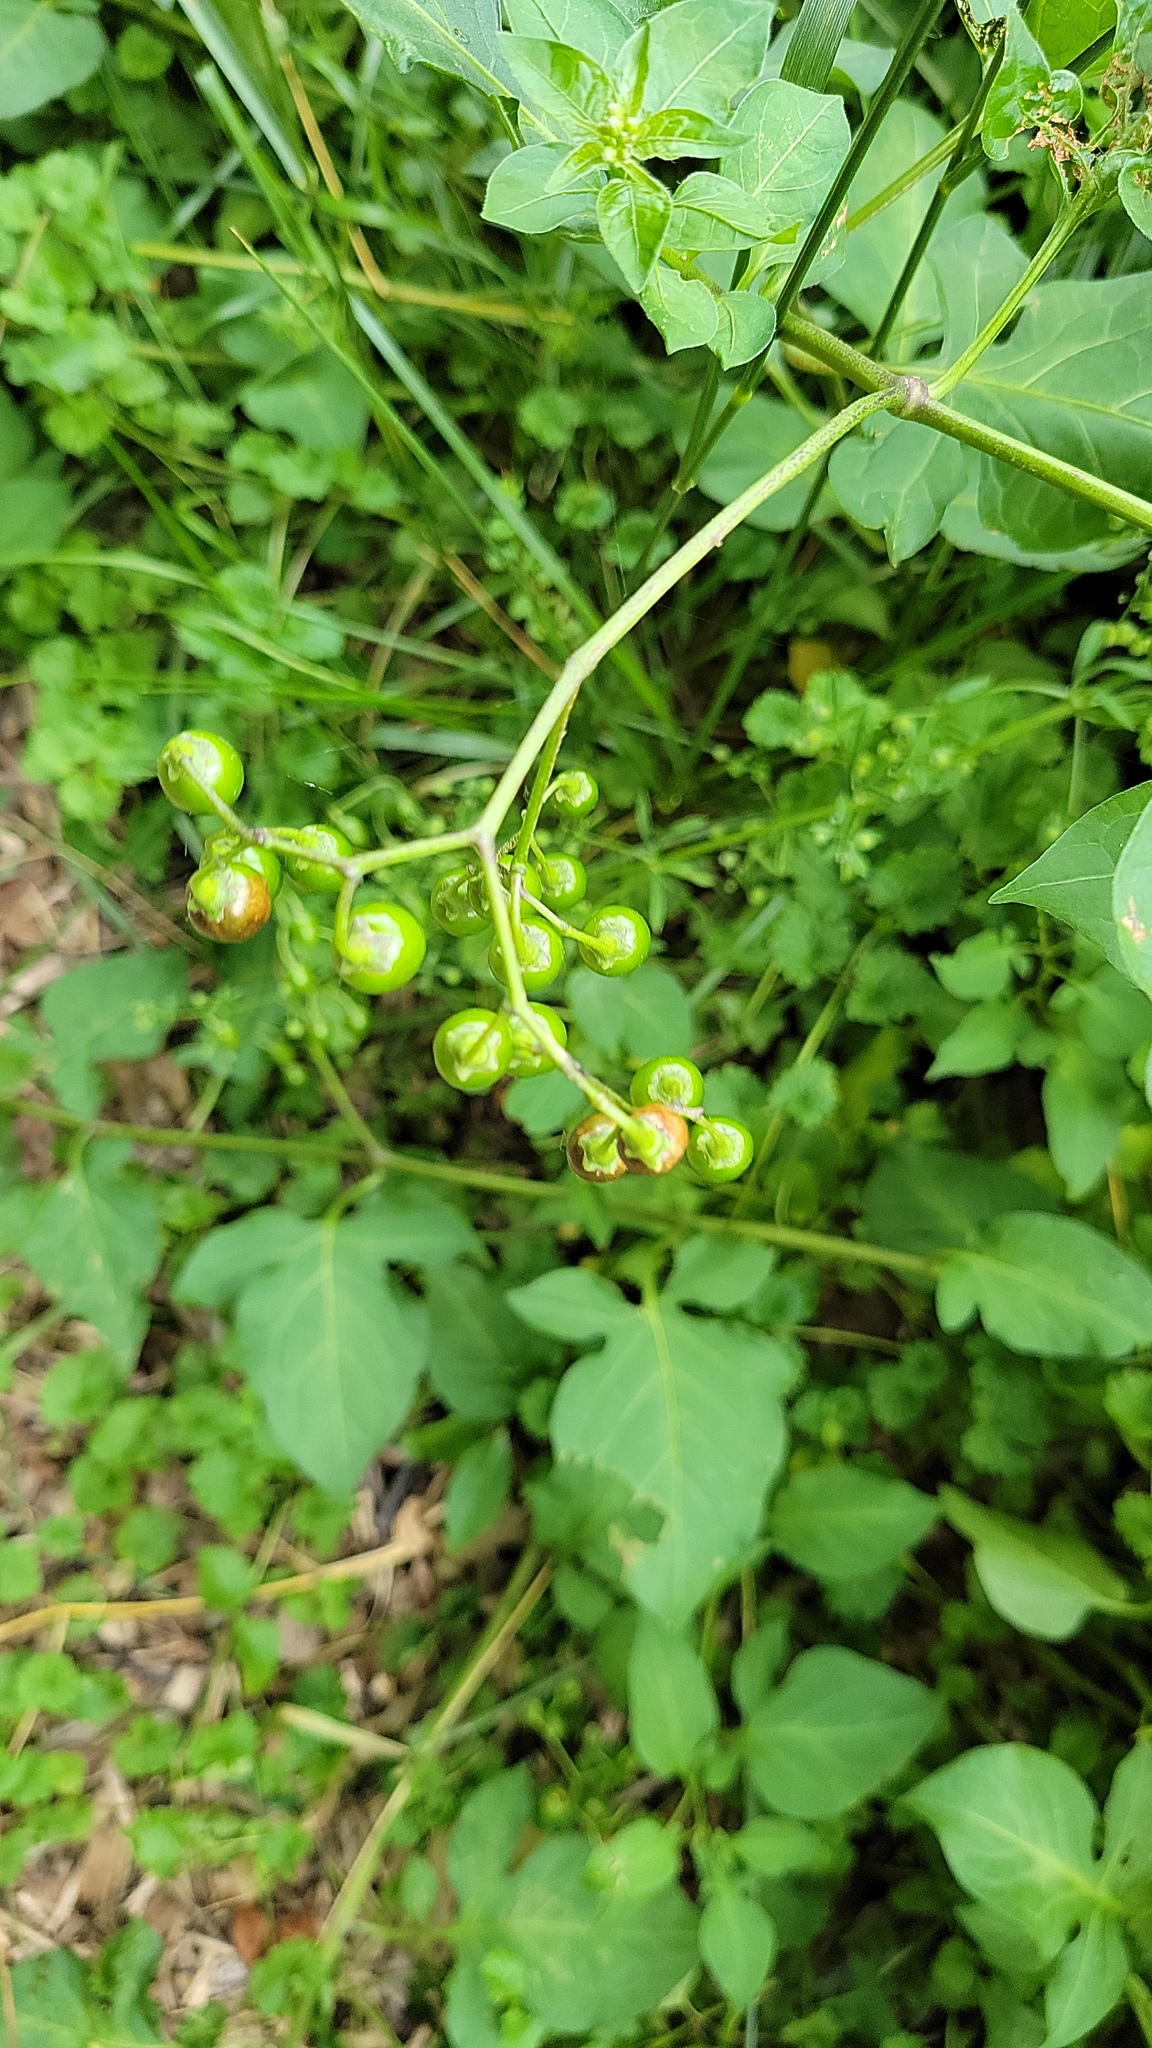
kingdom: Plantae
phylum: Tracheophyta
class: Magnoliopsida
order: Solanales
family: Solanaceae
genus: Solanum
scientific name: Solanum dulcamara
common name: Climbing nightshade
